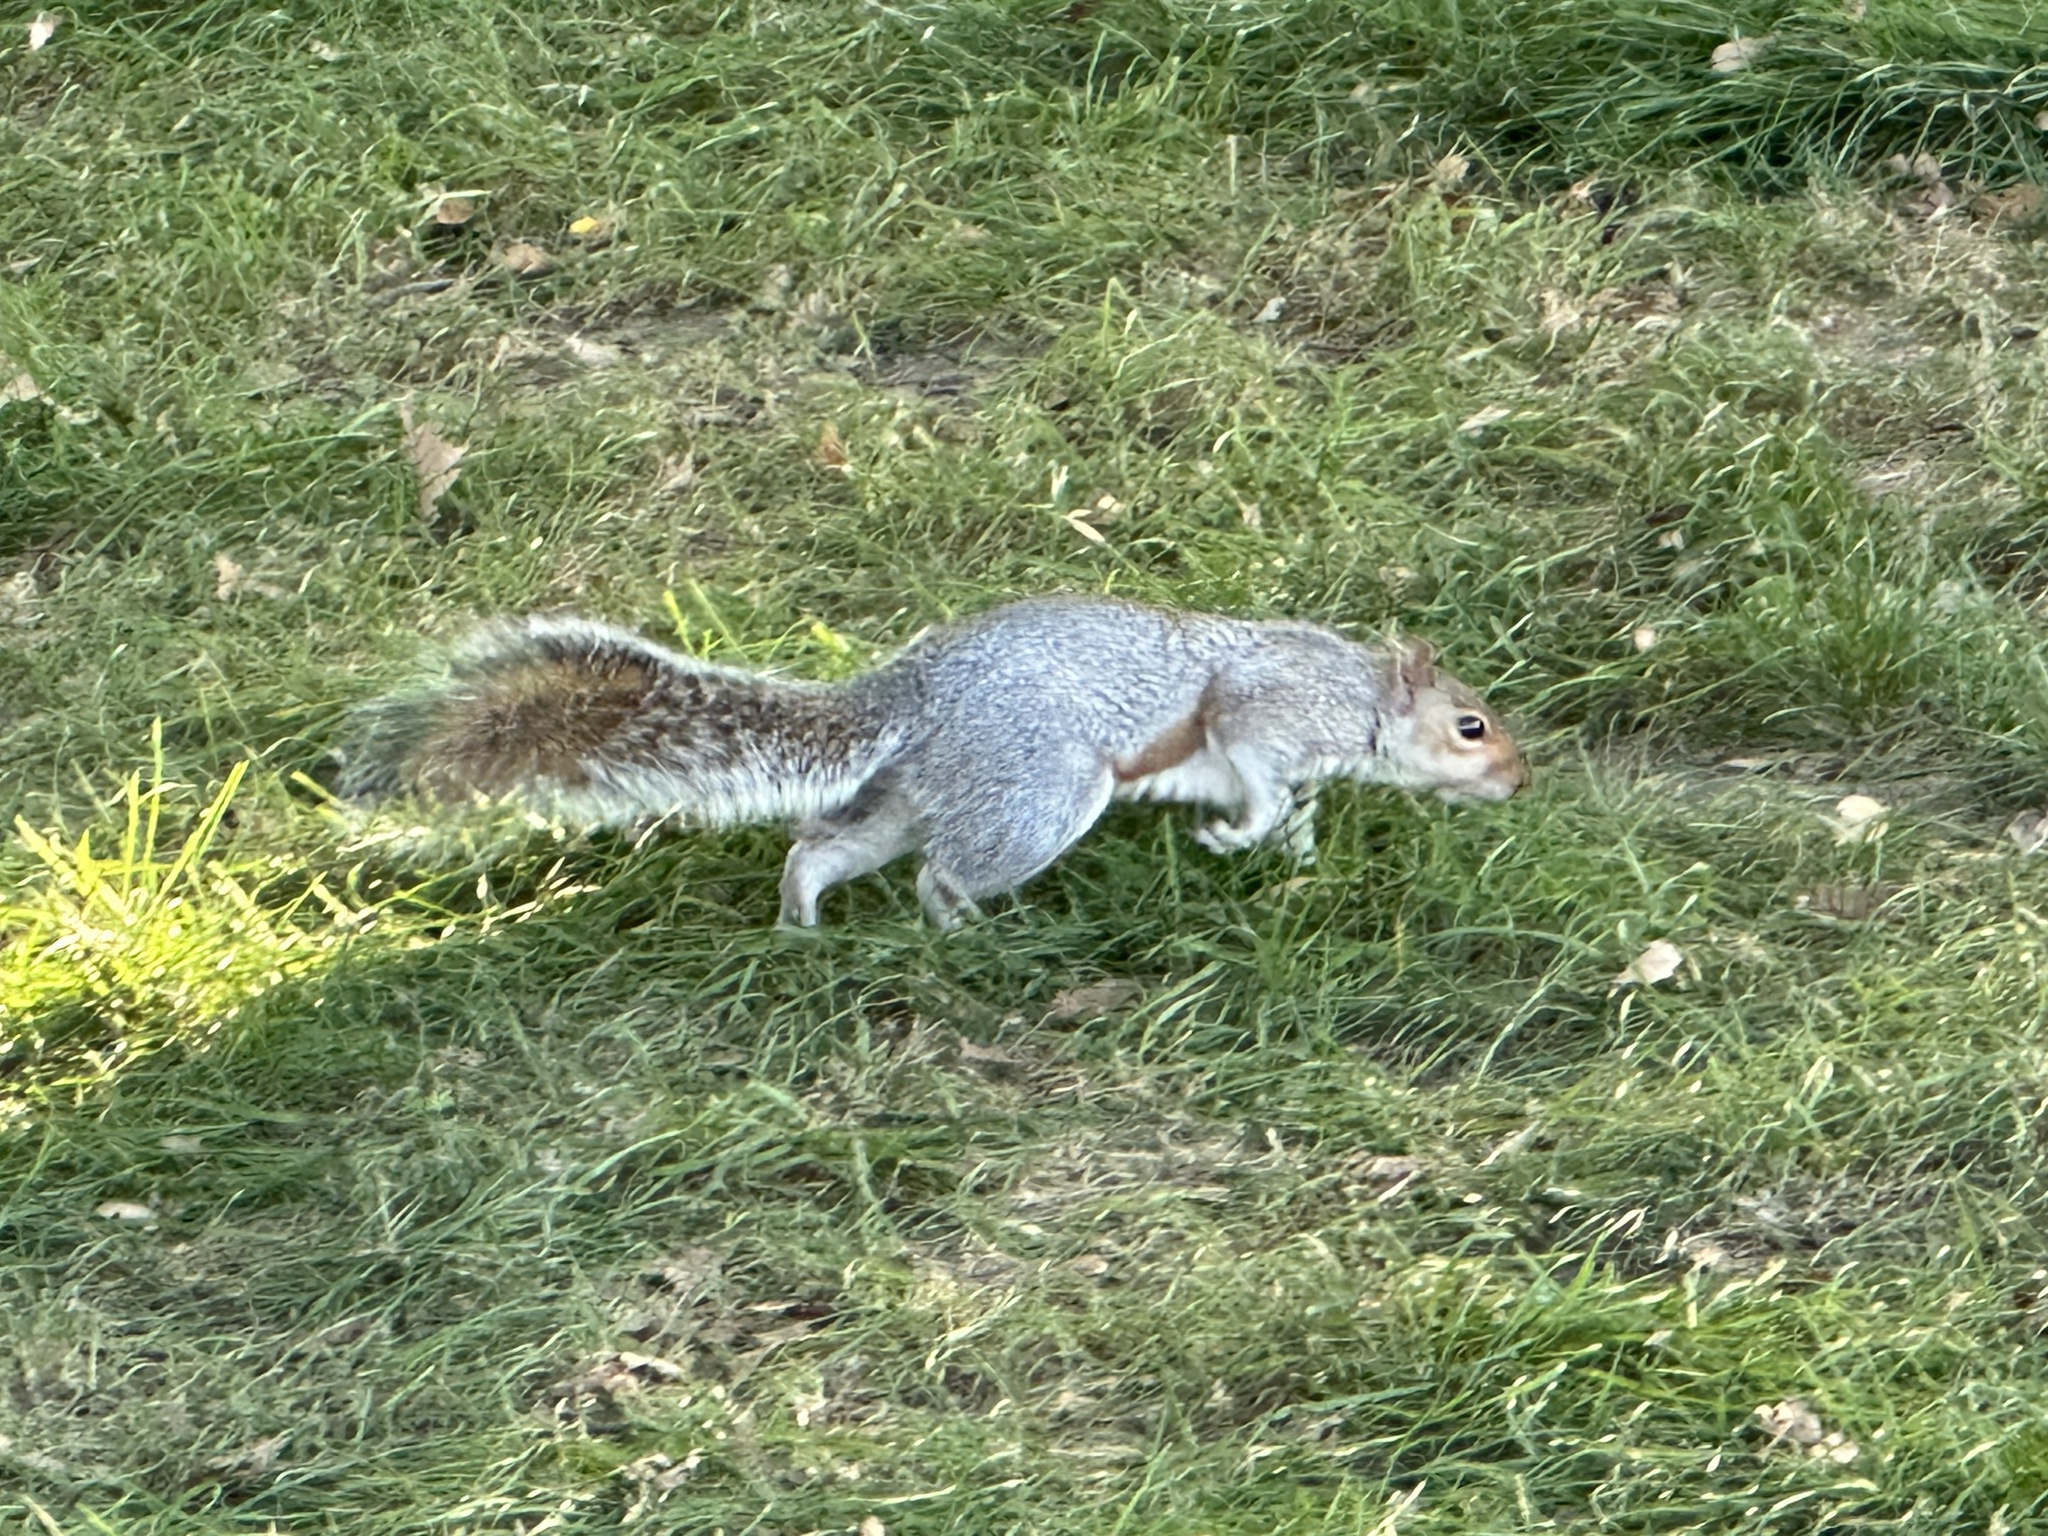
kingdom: Animalia
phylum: Chordata
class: Mammalia
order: Rodentia
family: Sciuridae
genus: Sciurus
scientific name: Sciurus carolinensis
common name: Eastern gray squirrel
